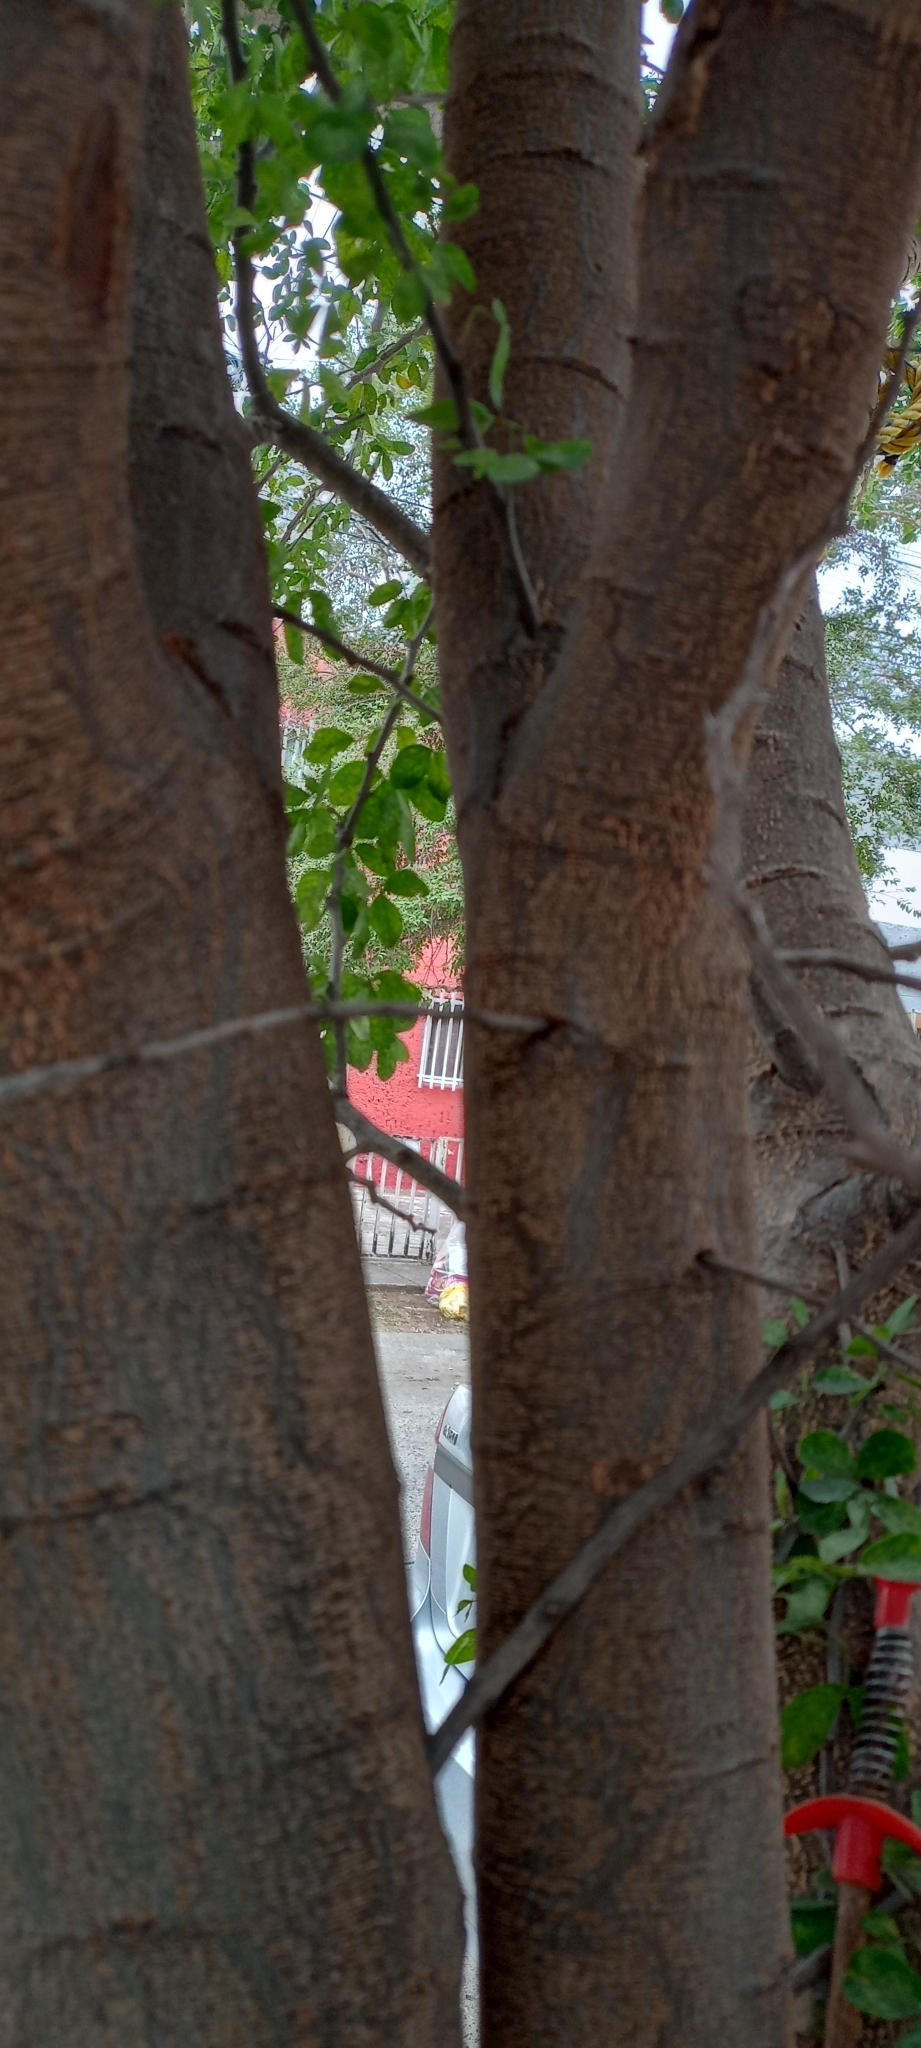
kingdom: Plantae
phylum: Tracheophyta
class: Magnoliopsida
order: Fabales
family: Fabaceae
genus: Pithecellobium
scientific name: Pithecellobium dulce
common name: Monkeypod
